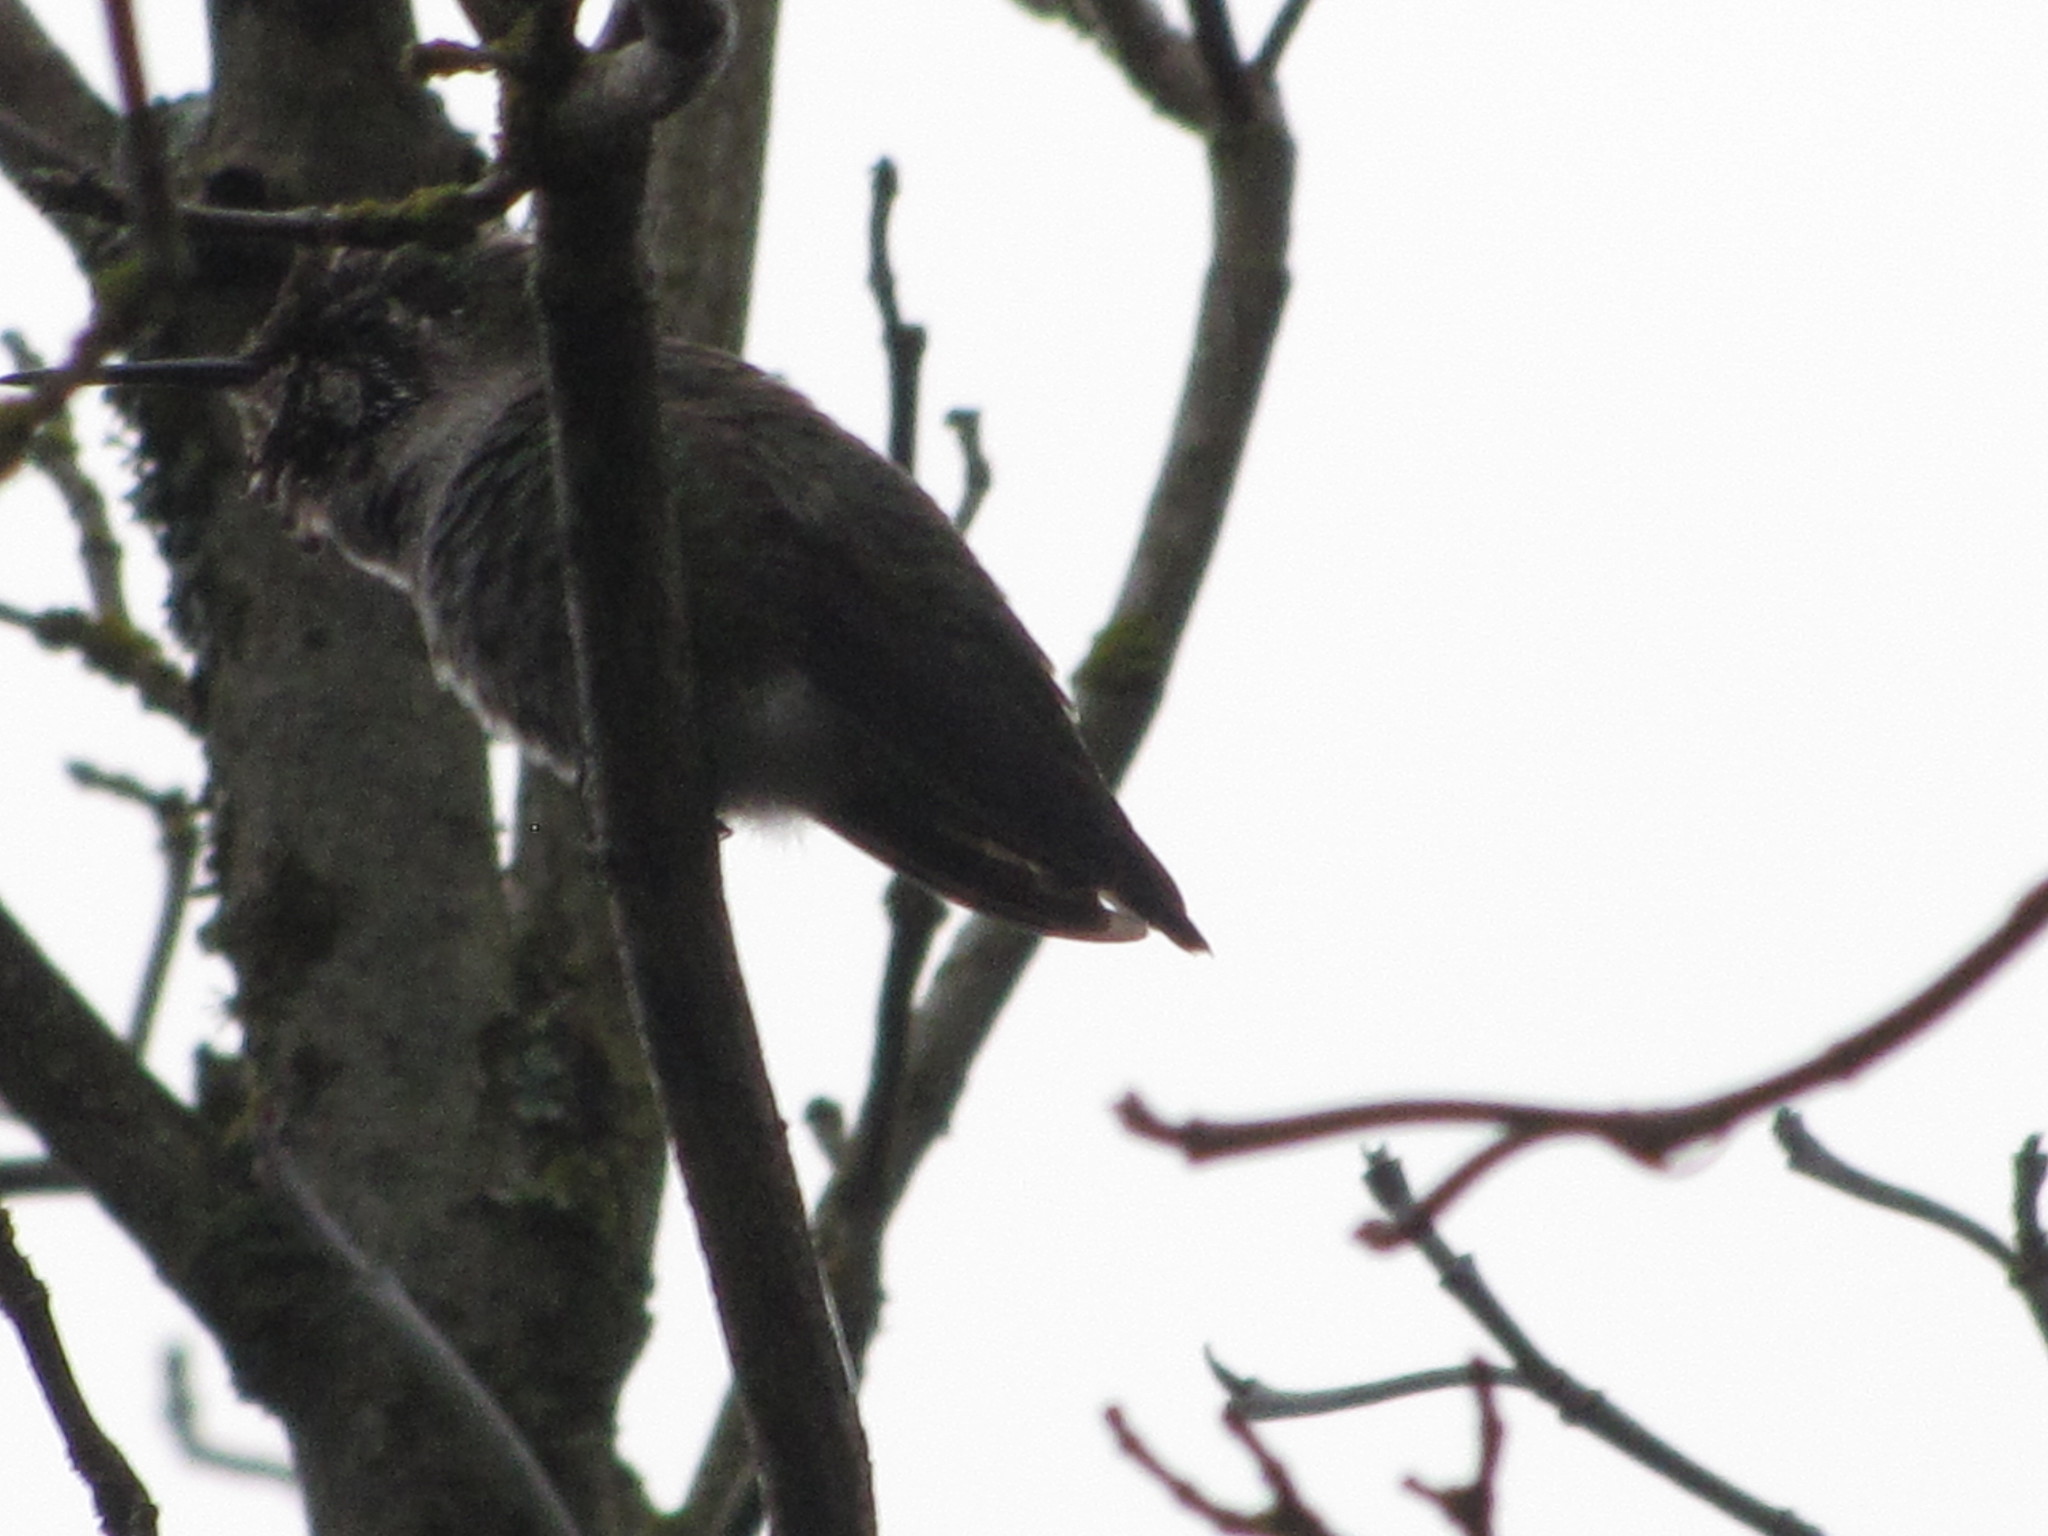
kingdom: Animalia
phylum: Chordata
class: Aves
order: Apodiformes
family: Trochilidae
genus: Calypte
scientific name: Calypte anna
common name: Anna's hummingbird
